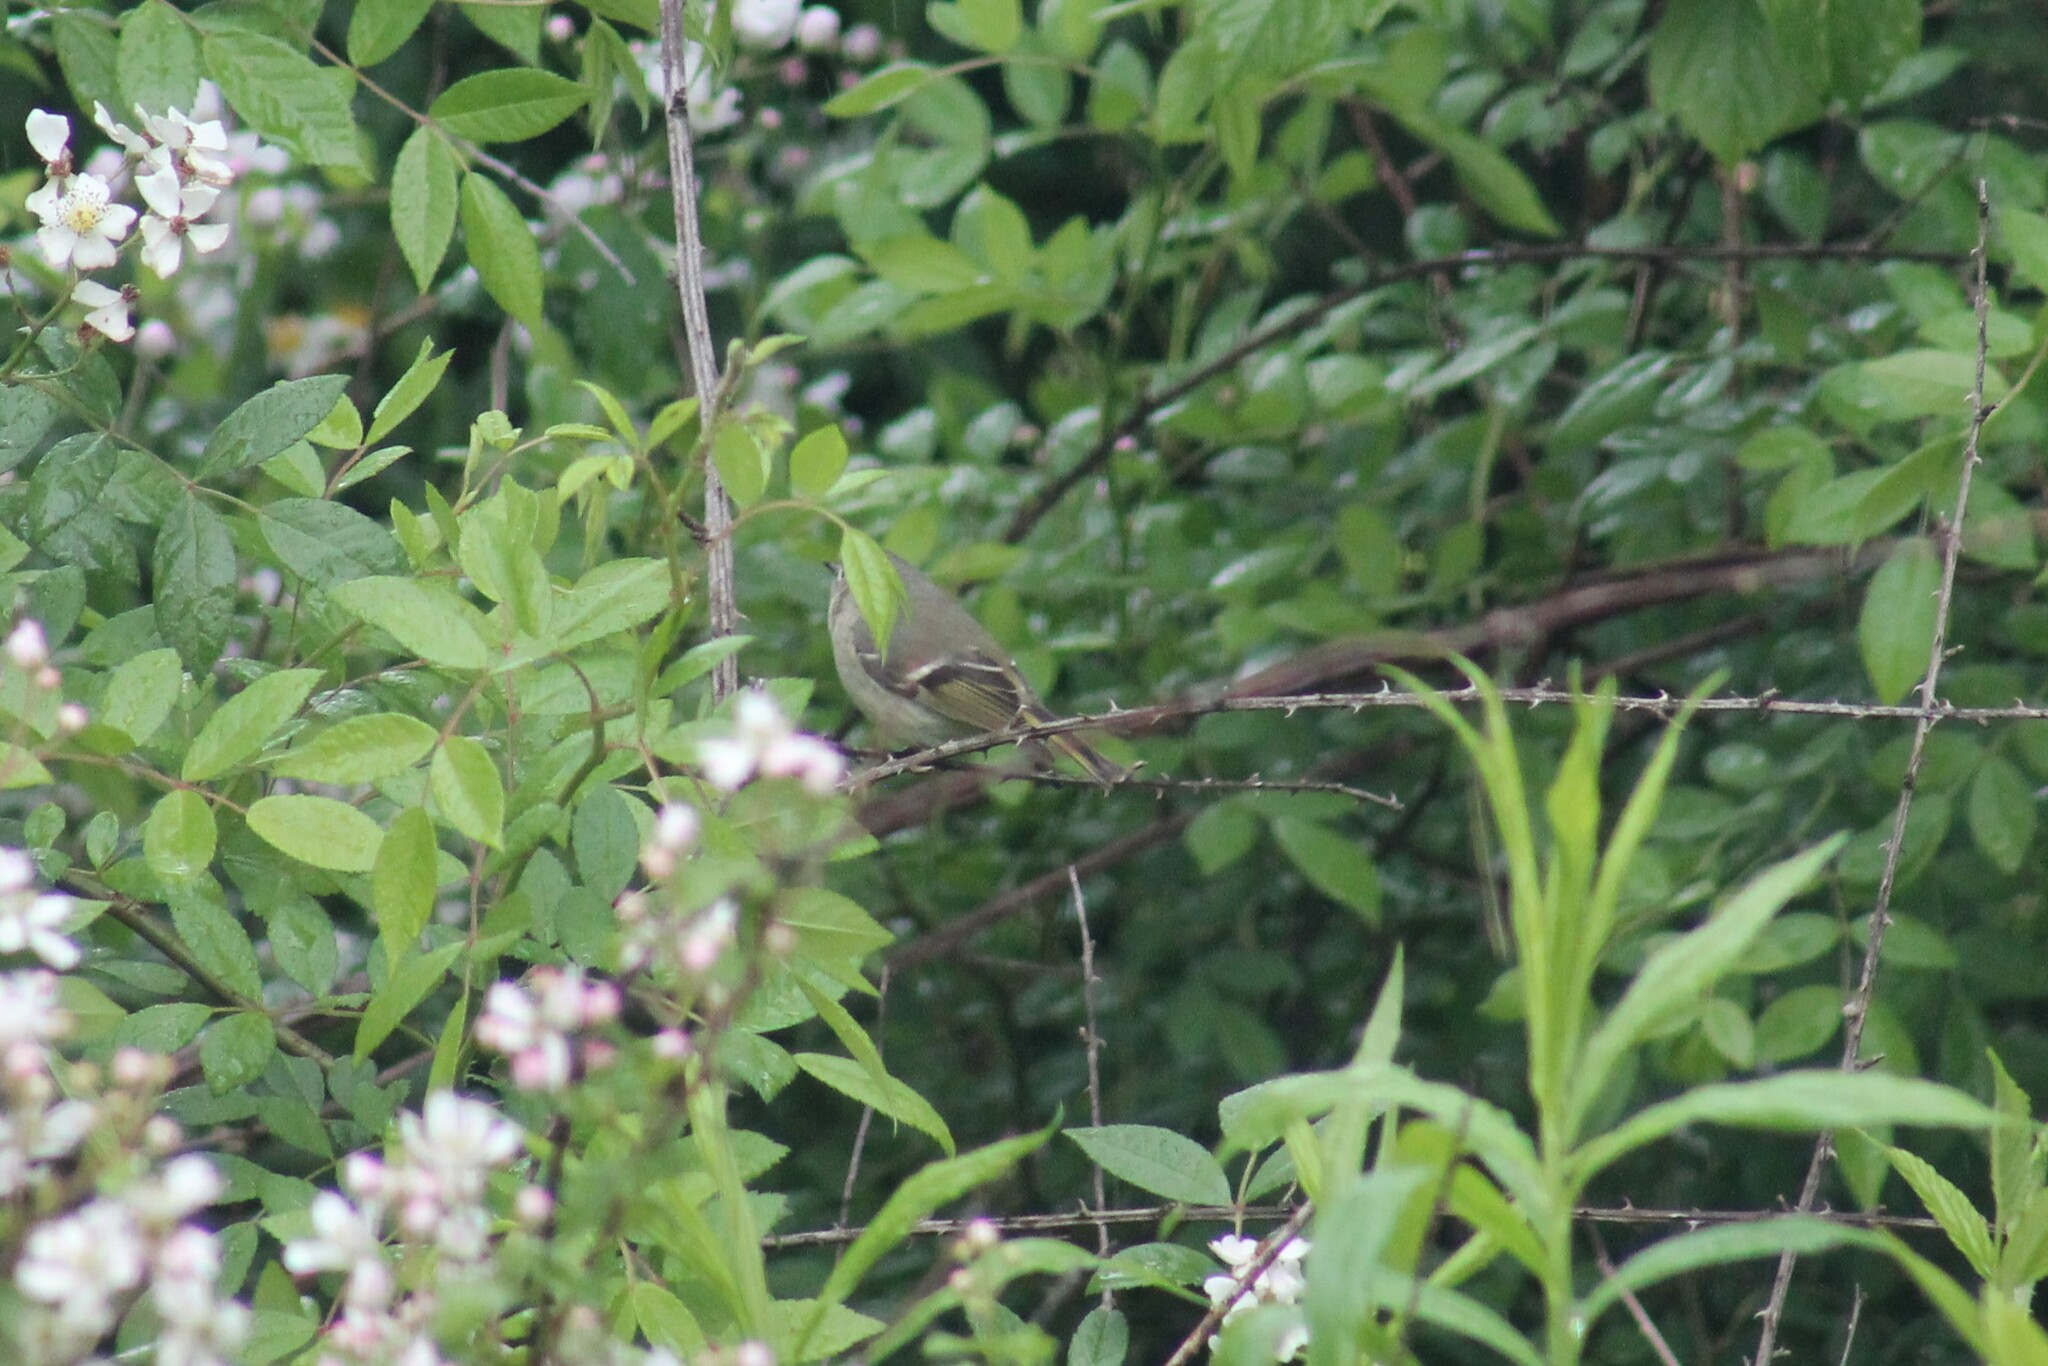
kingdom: Animalia
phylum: Chordata
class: Aves
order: Passeriformes
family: Regulidae
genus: Regulus
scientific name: Regulus calendula
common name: Ruby-crowned kinglet
